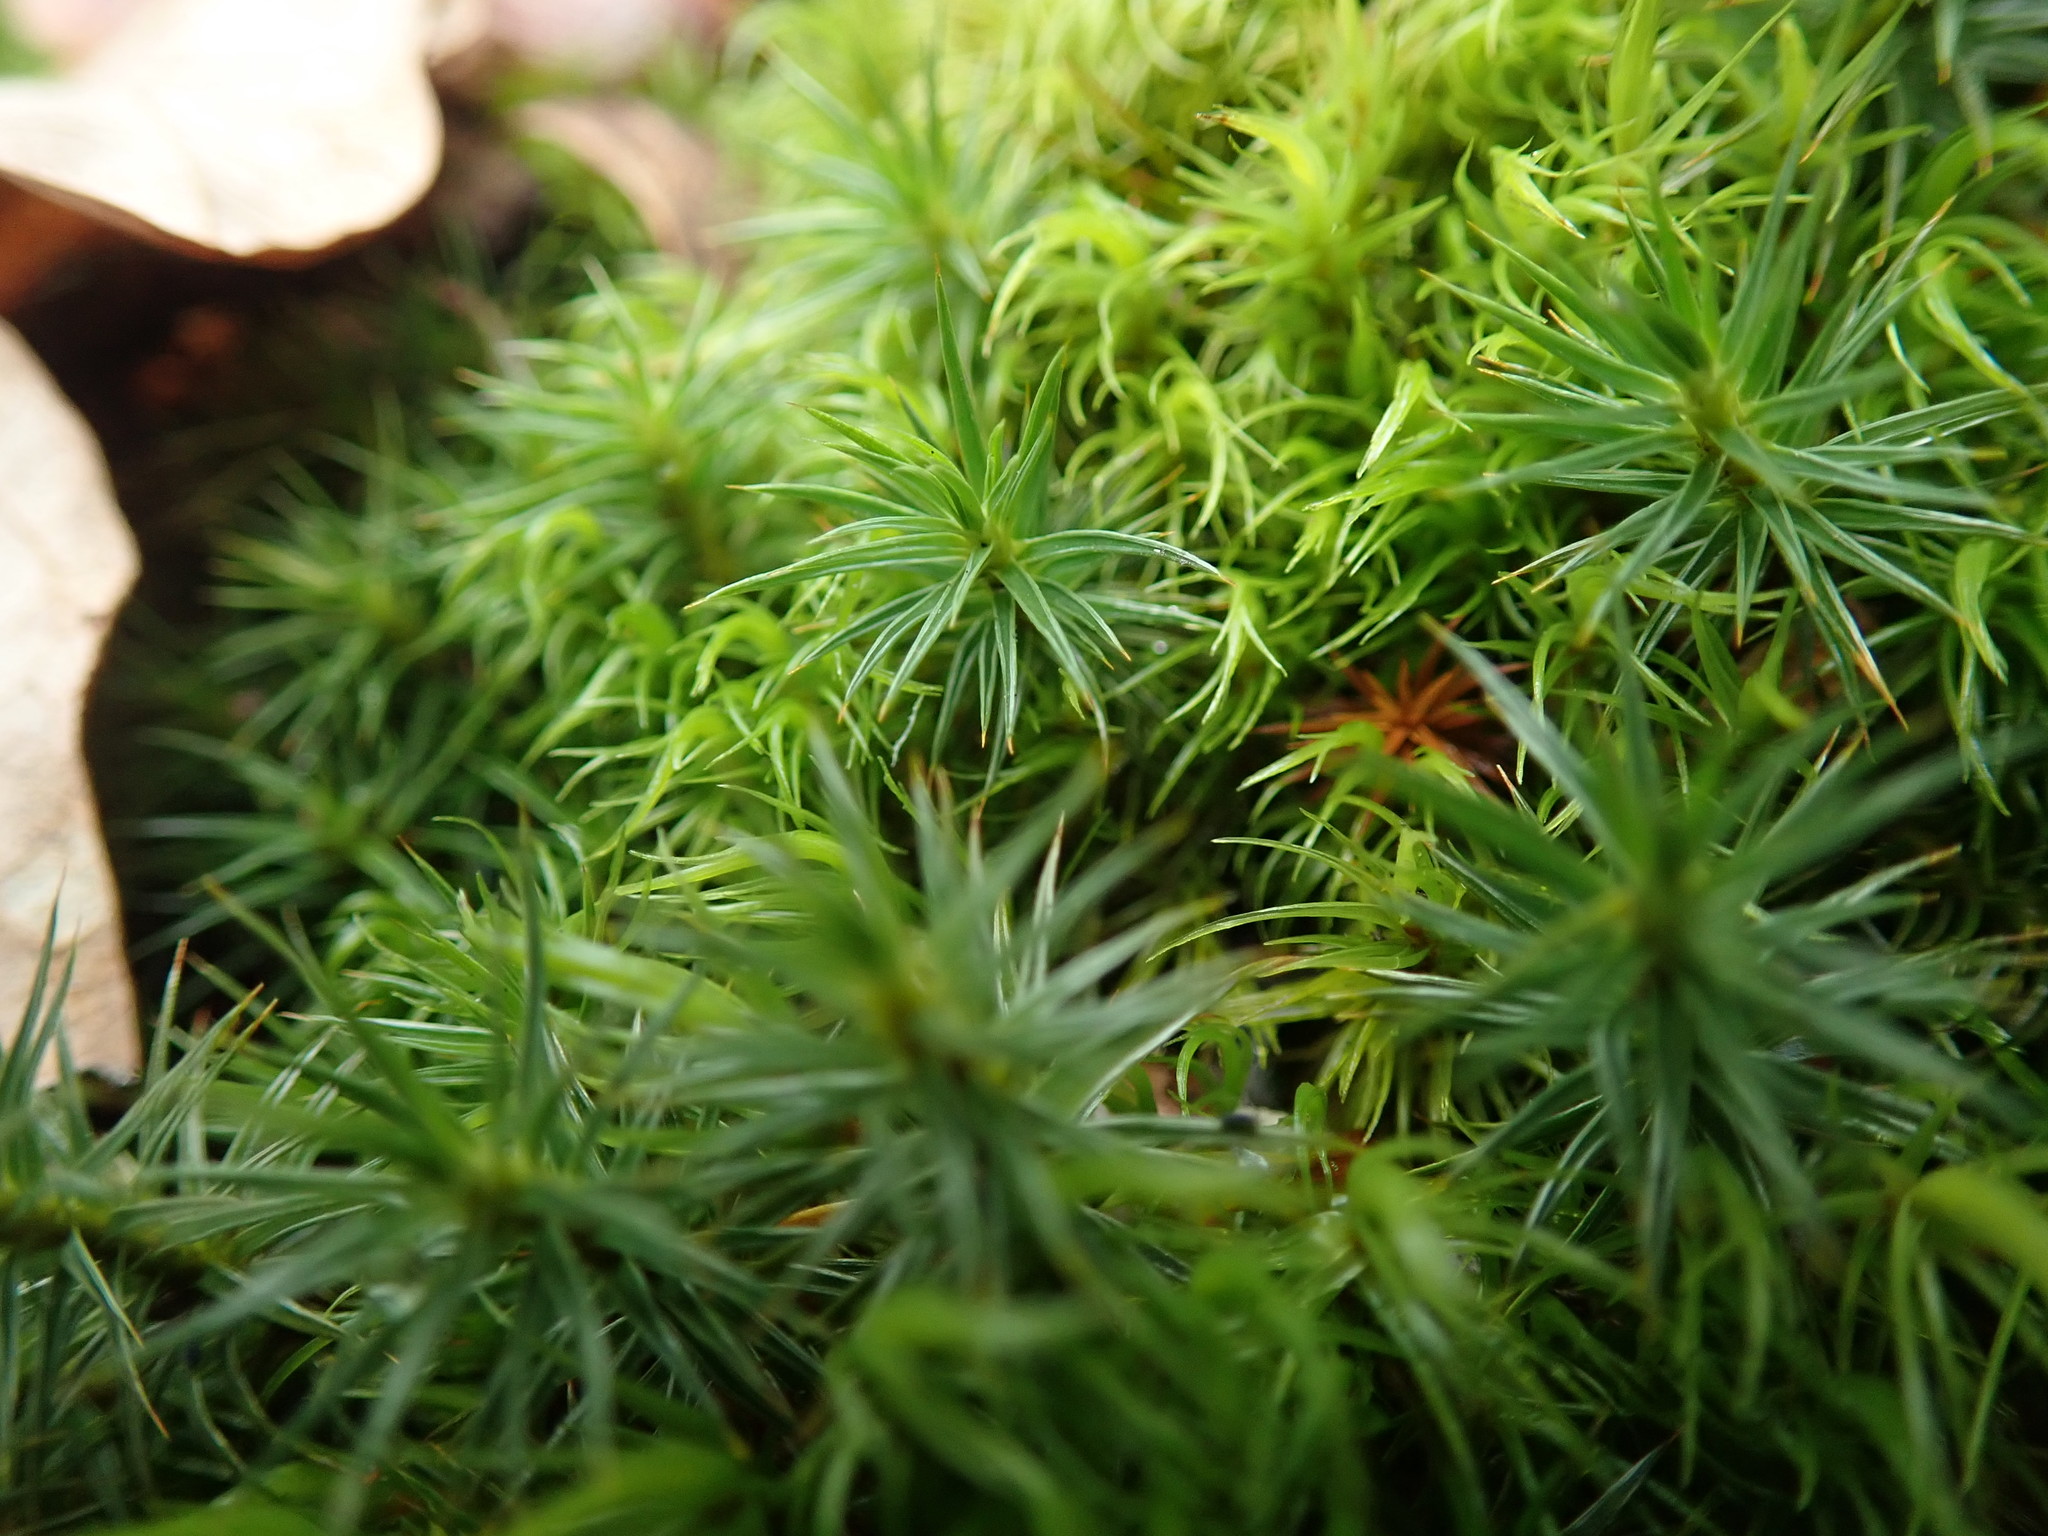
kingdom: Plantae
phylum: Bryophyta
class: Polytrichopsida
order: Polytrichales
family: Polytrichaceae
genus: Polytrichum
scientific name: Polytrichum juniperinum
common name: Juniper haircap moss
